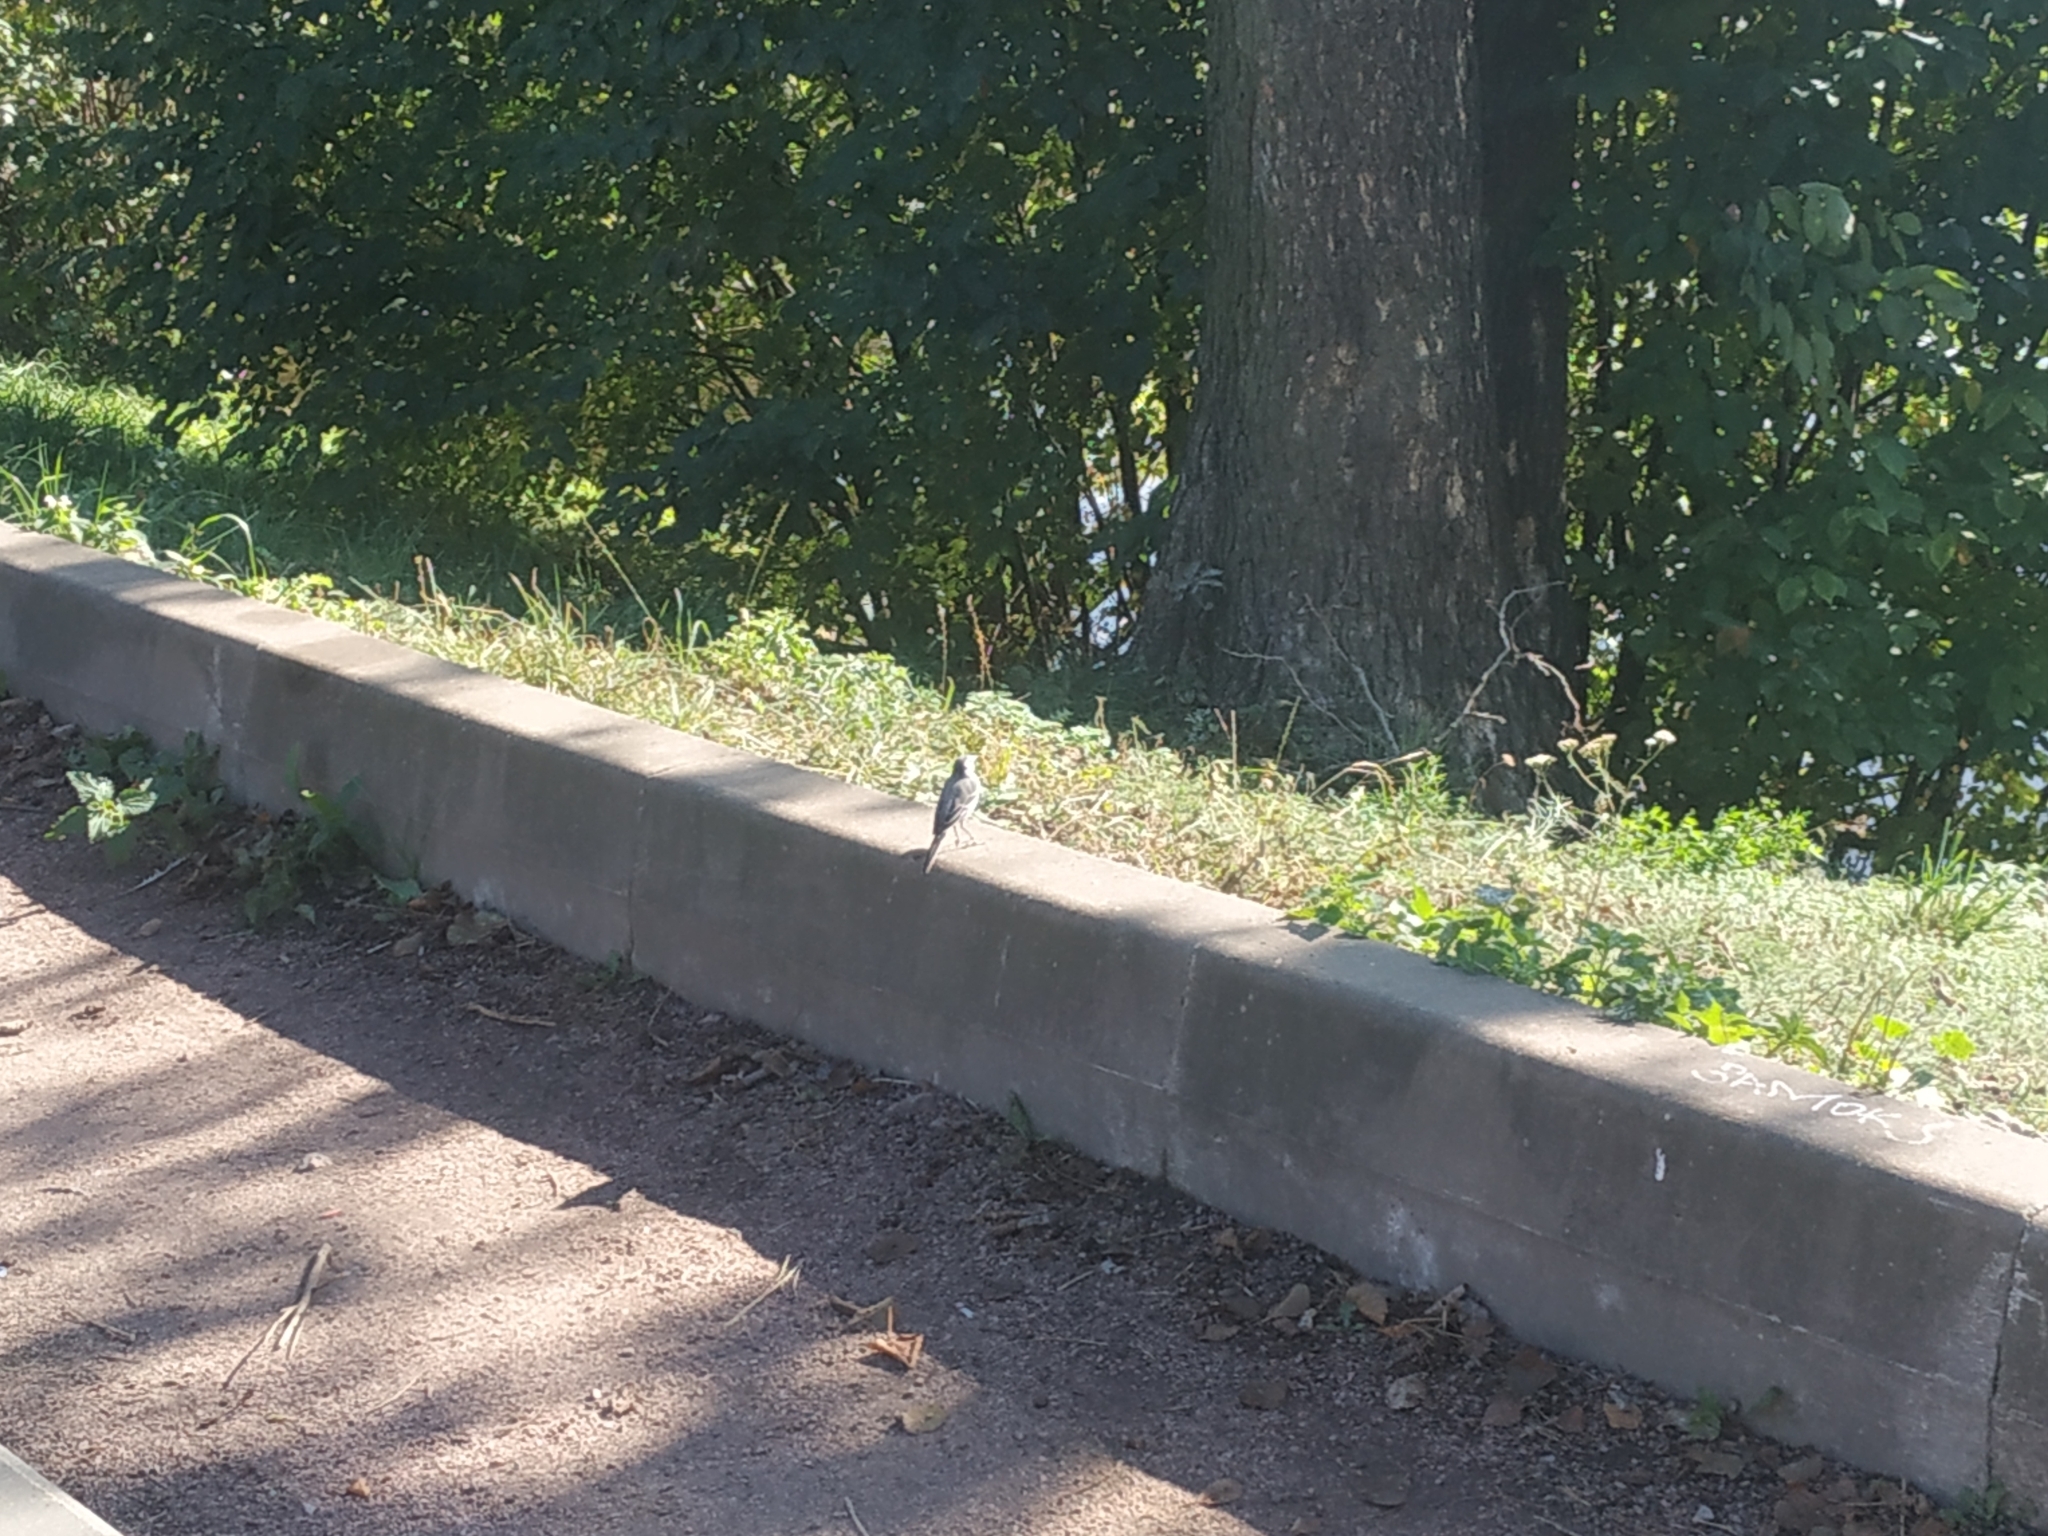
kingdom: Animalia
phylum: Chordata
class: Aves
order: Passeriformes
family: Motacillidae
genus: Motacilla
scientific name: Motacilla alba
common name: White wagtail
